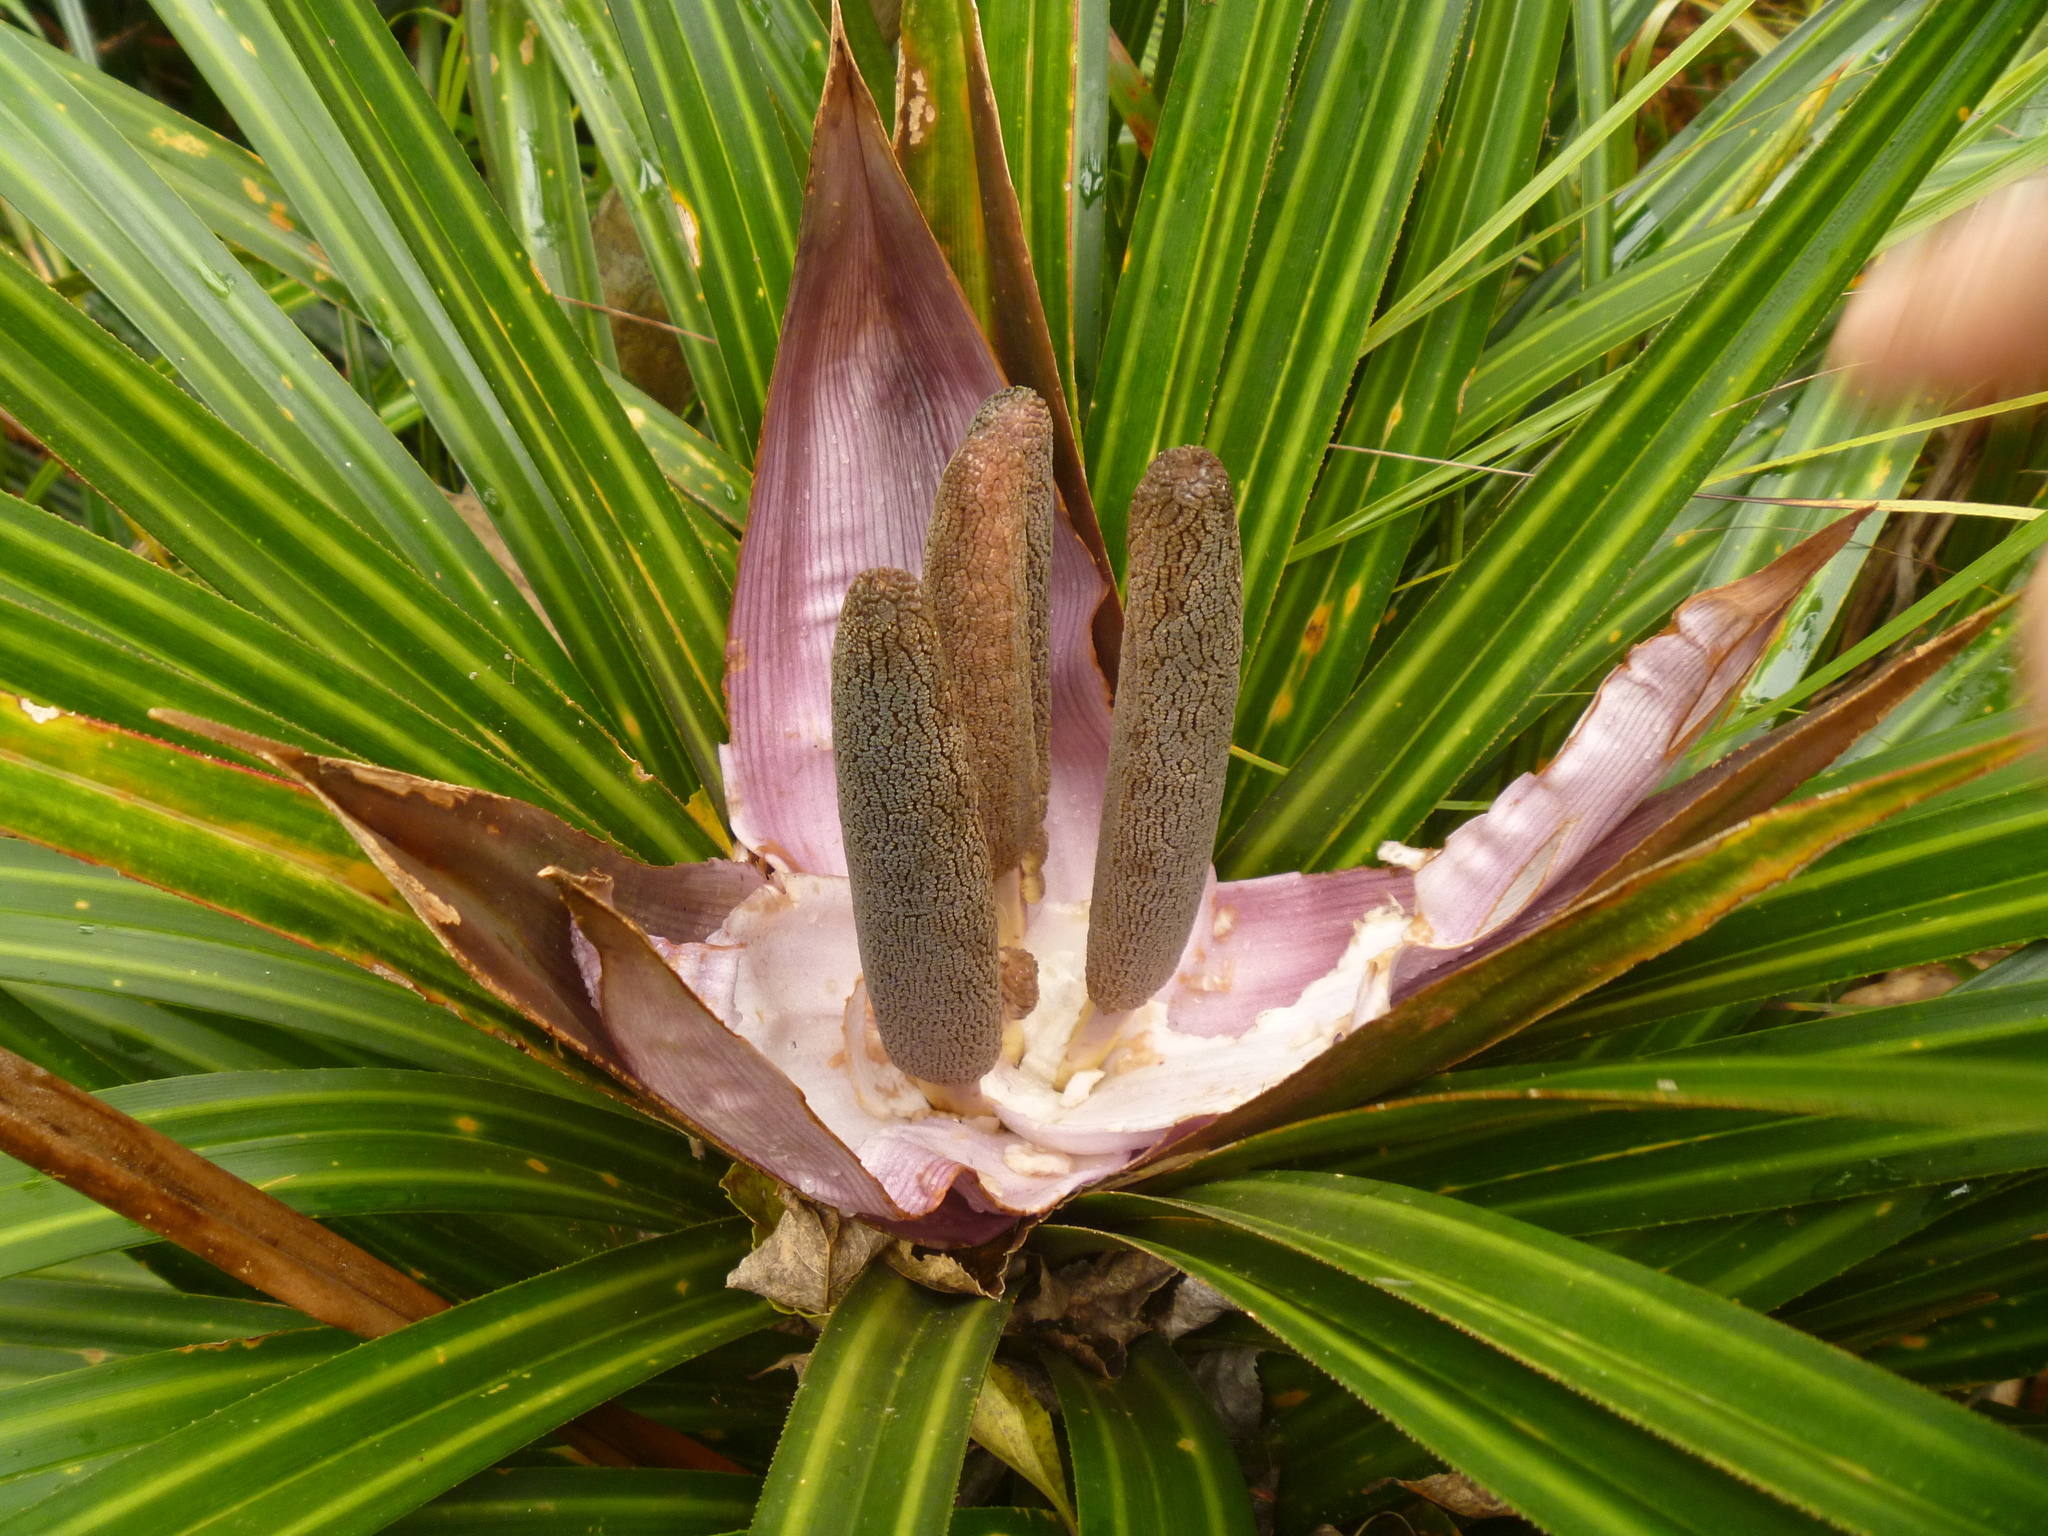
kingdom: Plantae
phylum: Tracheophyta
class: Liliopsida
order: Pandanales
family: Pandanaceae
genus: Freycinetia
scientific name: Freycinetia banksii
